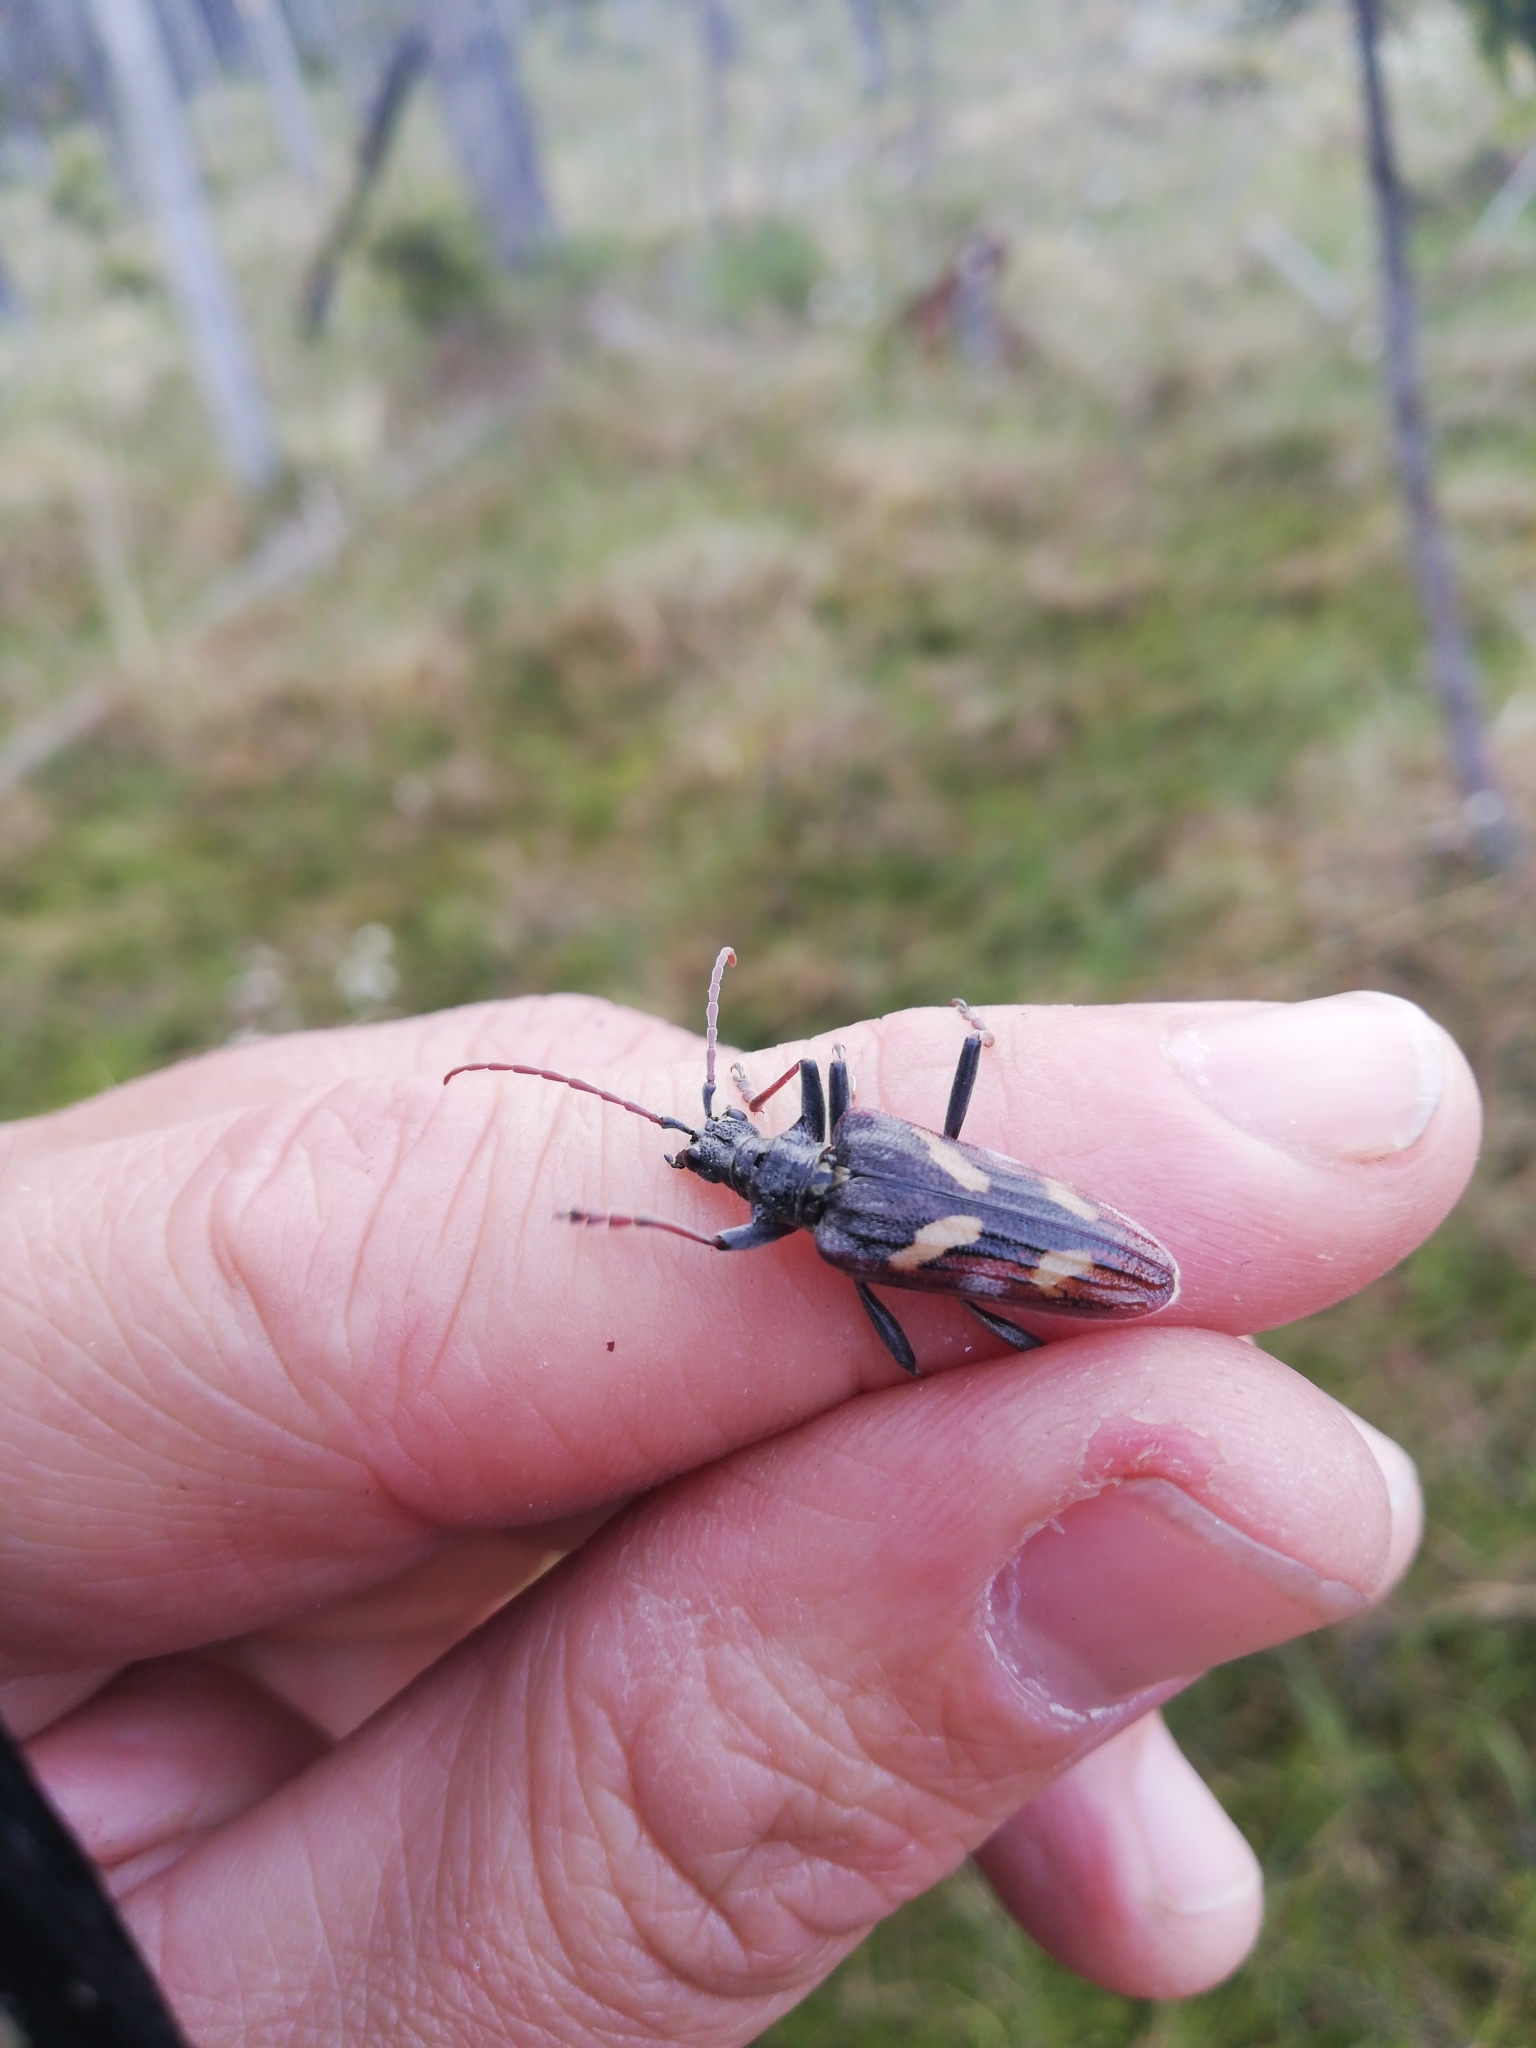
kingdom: Animalia
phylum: Arthropoda
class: Insecta
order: Coleoptera
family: Cerambycidae
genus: Rhagium
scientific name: Rhagium bifasciatum
